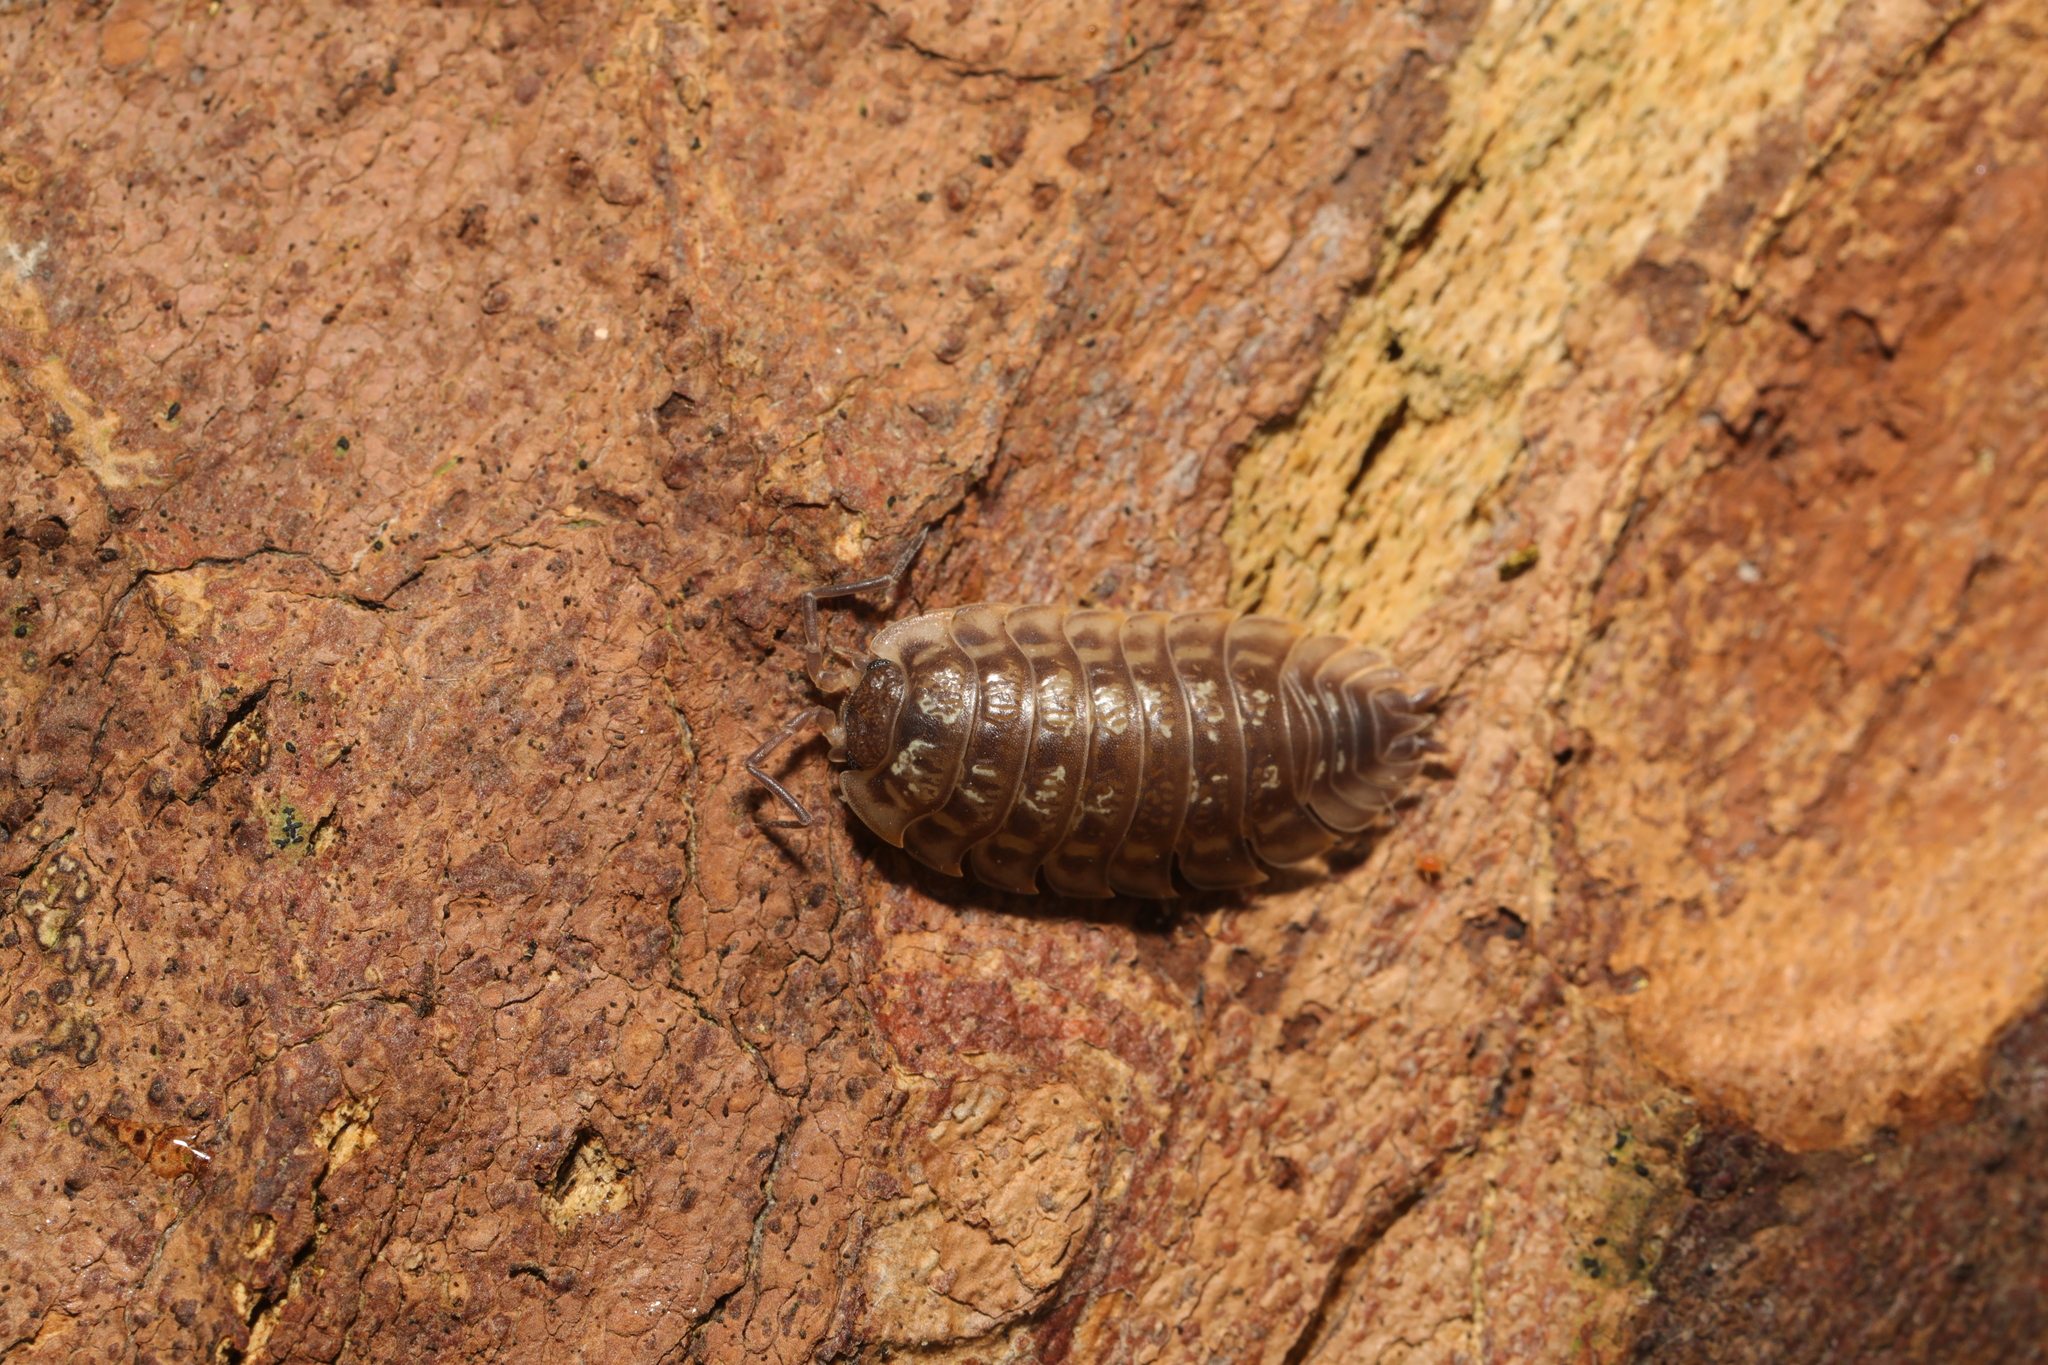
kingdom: Animalia
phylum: Arthropoda
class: Malacostraca
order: Isopoda
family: Oniscidae
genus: Oniscus
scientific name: Oniscus asellus
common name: Common shiny woodlouse
